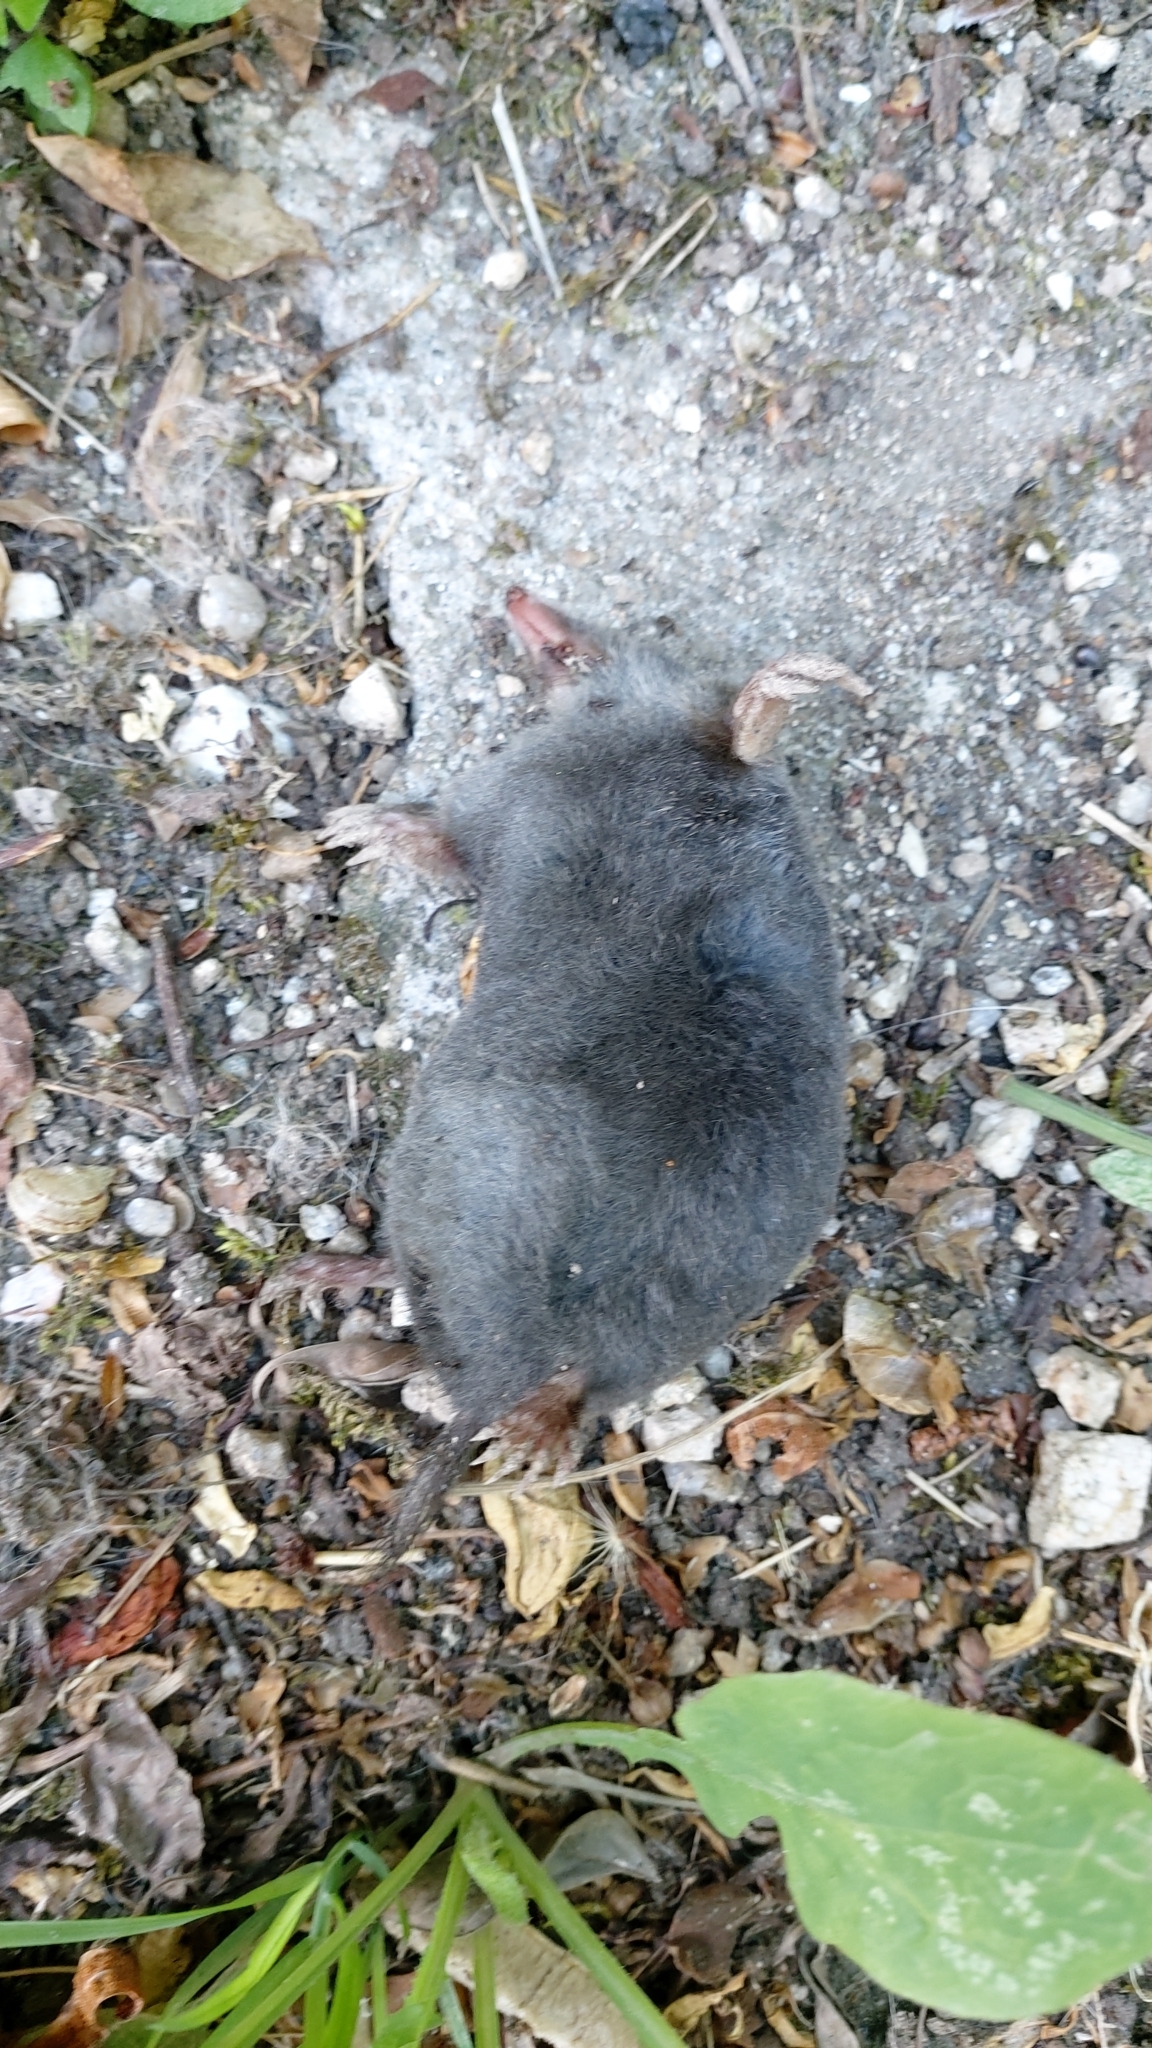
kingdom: Animalia
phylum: Chordata
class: Mammalia
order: Soricomorpha
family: Talpidae
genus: Talpa
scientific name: Talpa occidentalis
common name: Iberian mole
